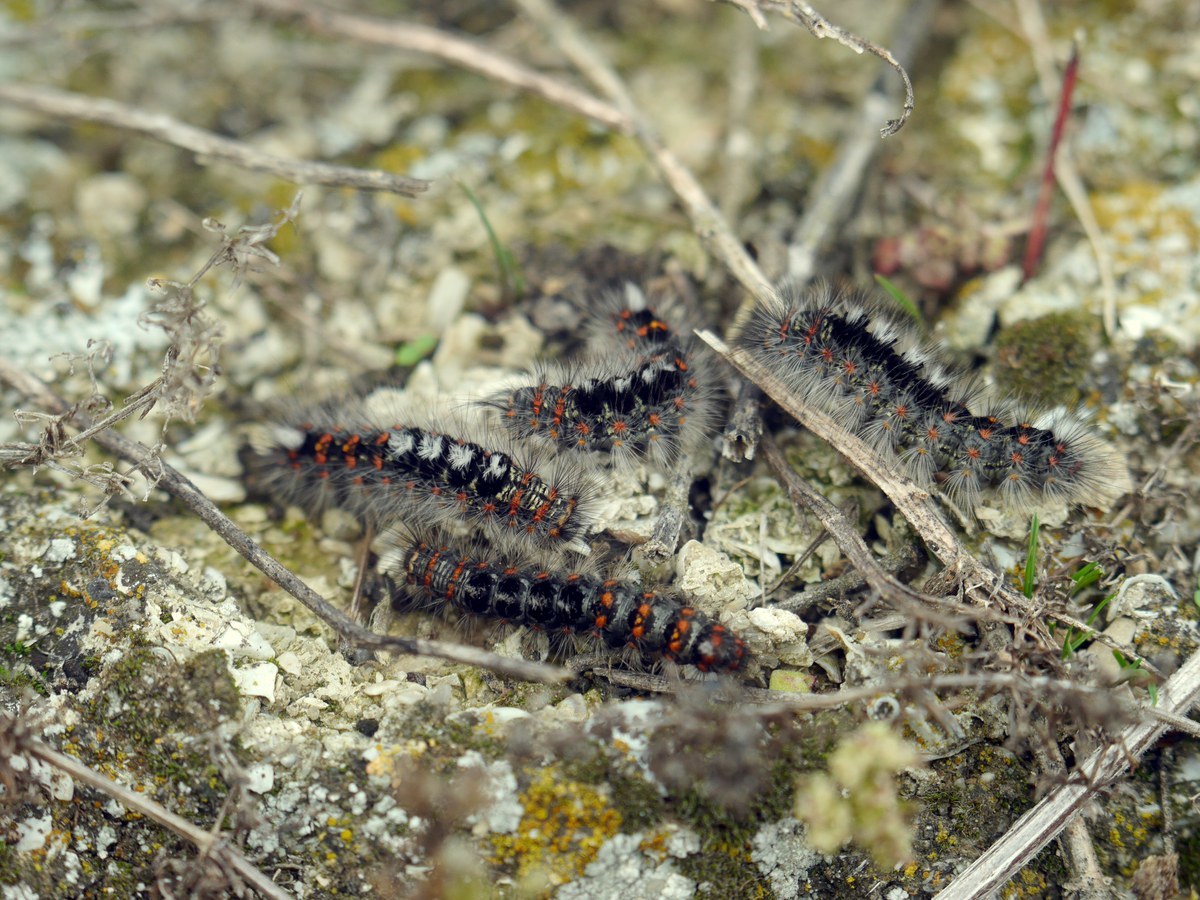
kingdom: Animalia
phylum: Arthropoda
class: Insecta
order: Lepidoptera
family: Erebidae
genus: Orgyia
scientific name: Orgyia dubia
